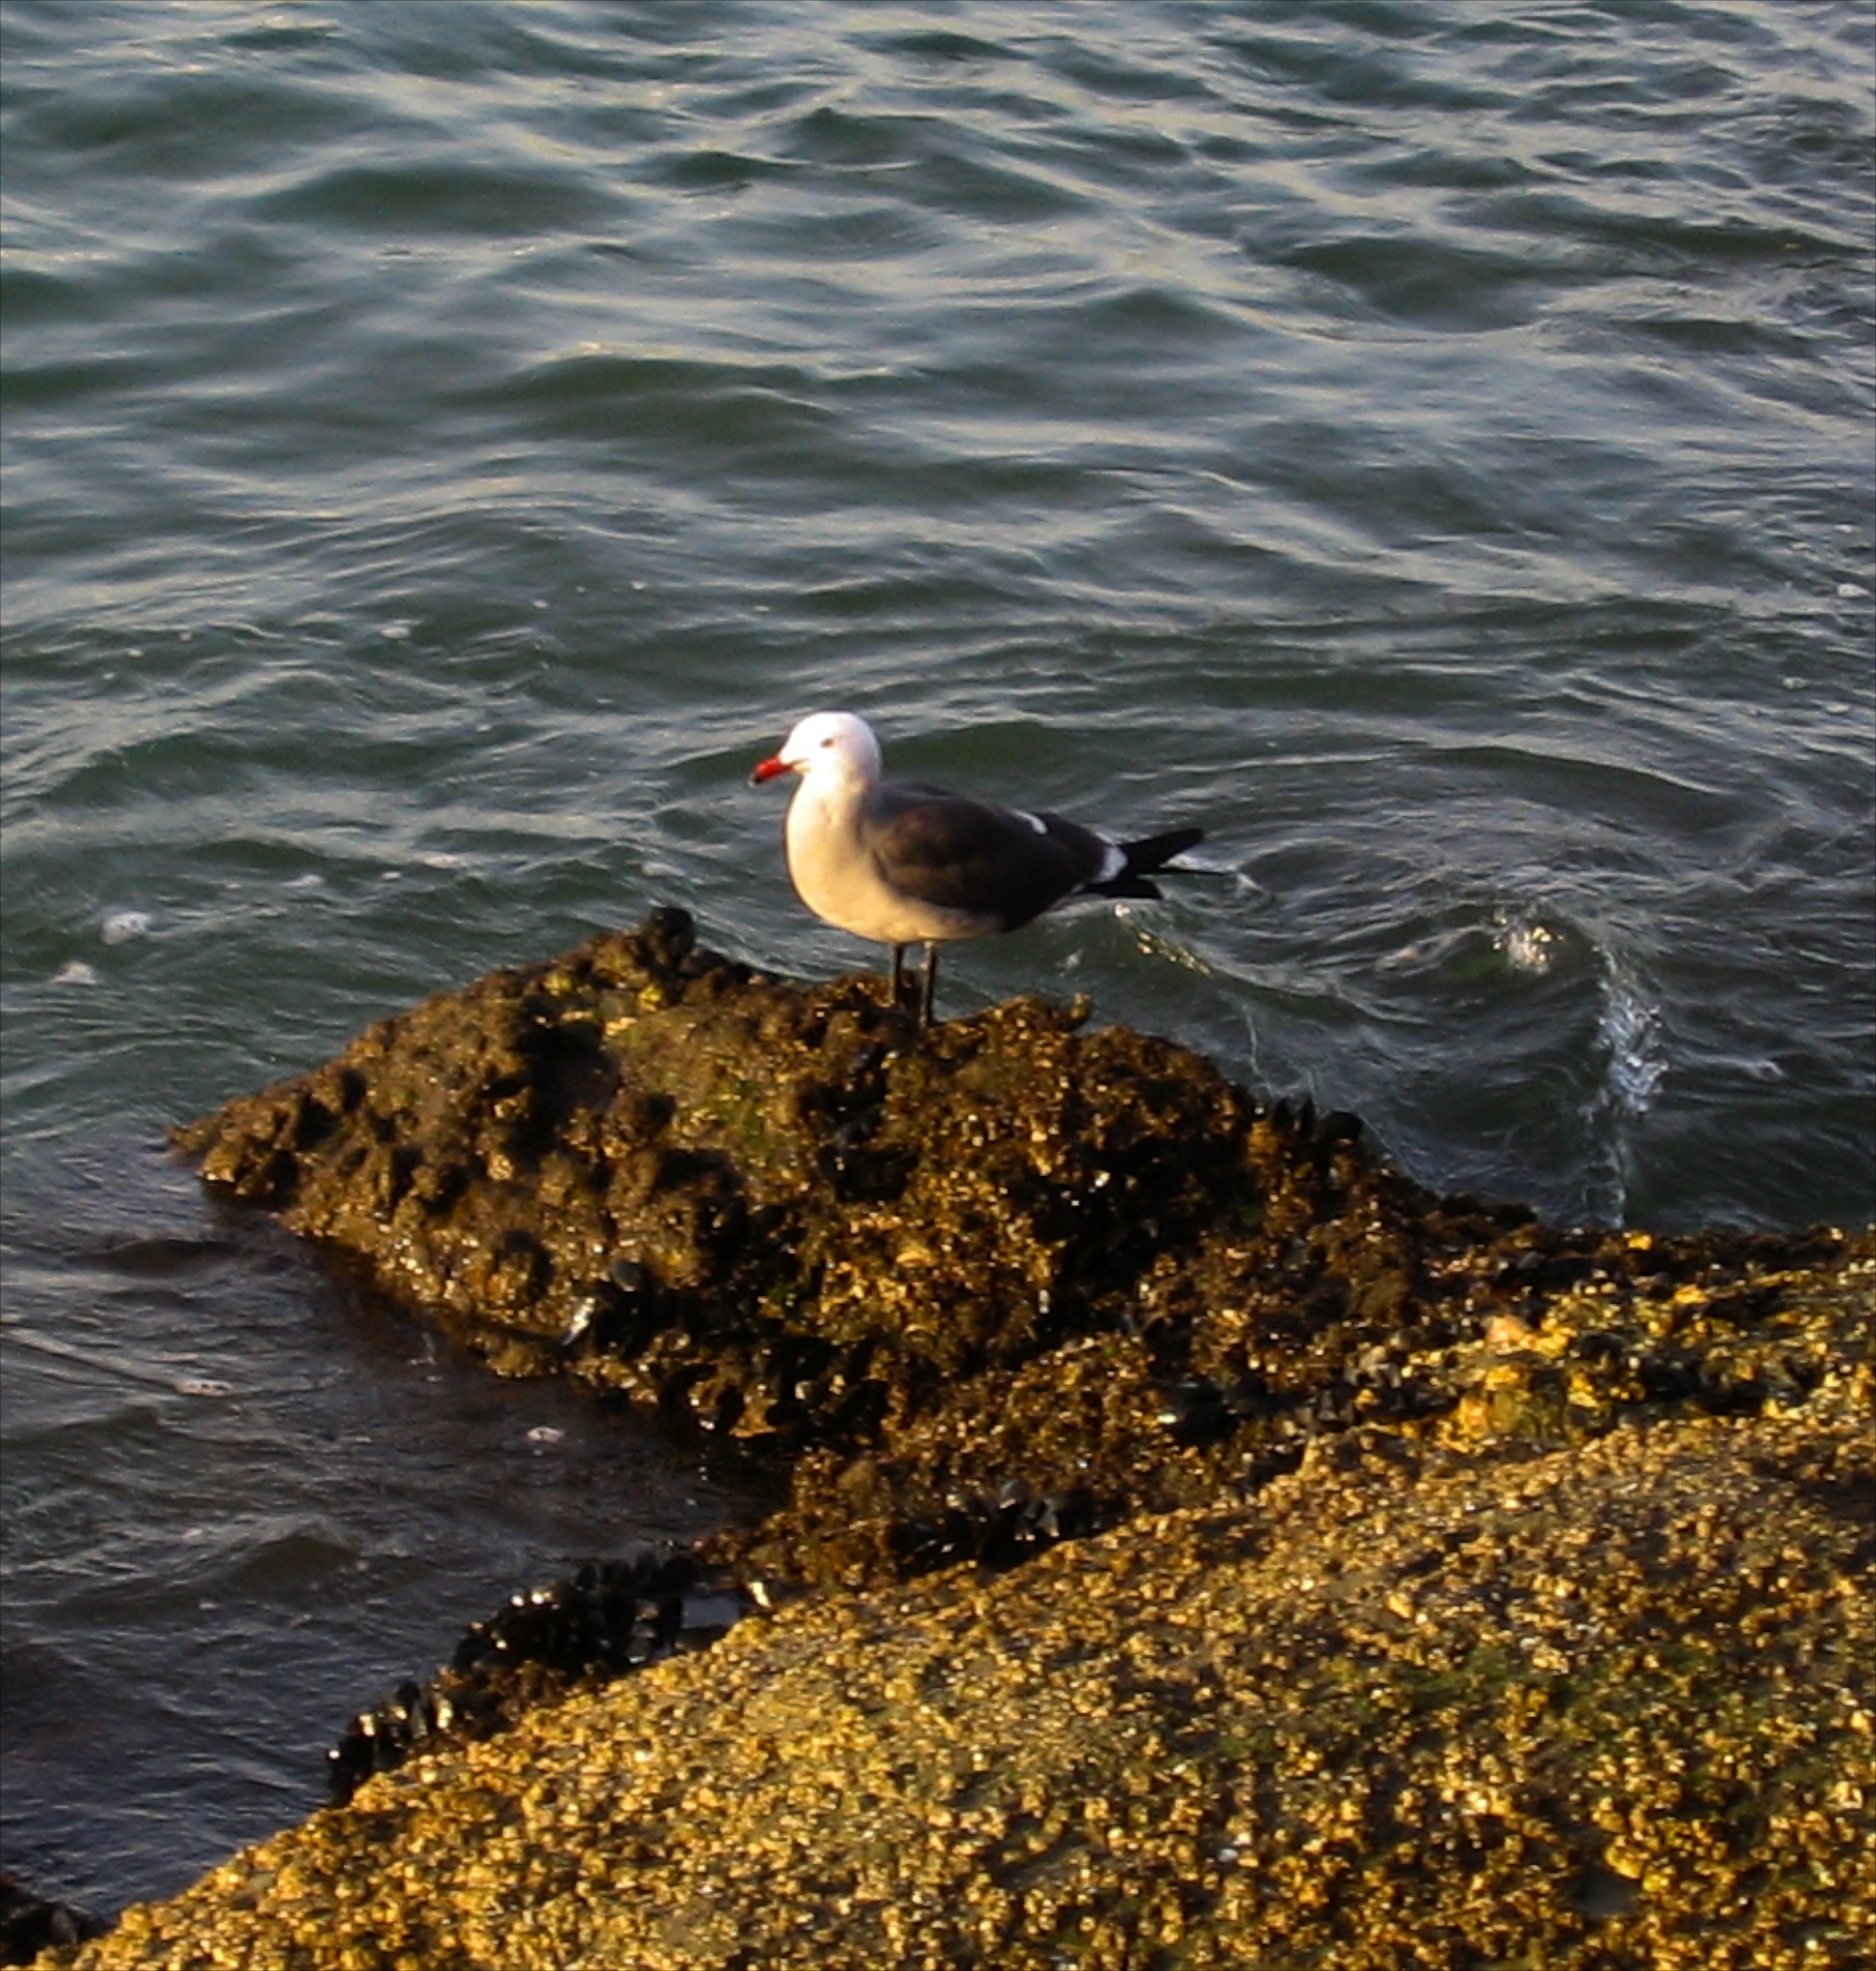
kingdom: Animalia
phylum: Chordata
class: Aves
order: Charadriiformes
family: Laridae
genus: Larus
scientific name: Larus heermanni
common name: Heermann's gull
